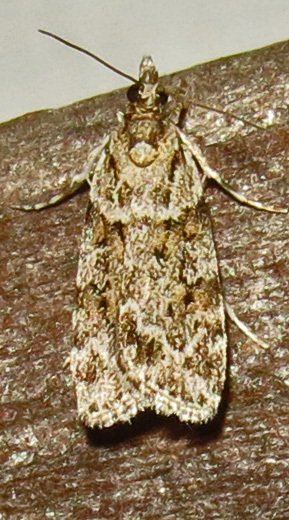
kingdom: Animalia
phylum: Arthropoda
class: Insecta
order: Lepidoptera
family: Crambidae
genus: Scoparia
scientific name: Scoparia biplagialis
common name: Double-striped scoparia moth
